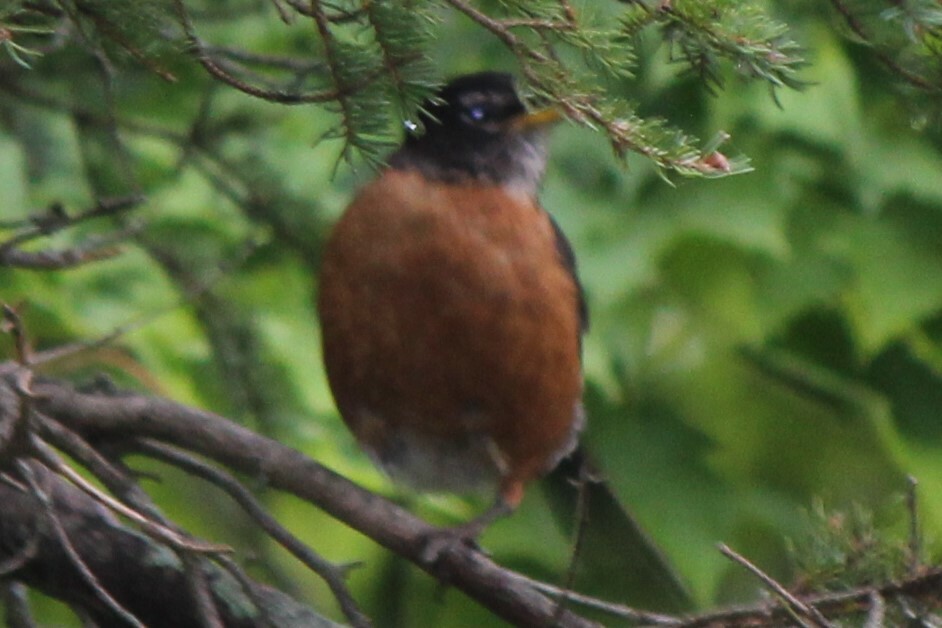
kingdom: Animalia
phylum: Chordata
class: Aves
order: Passeriformes
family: Turdidae
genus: Turdus
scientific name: Turdus migratorius
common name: American robin
